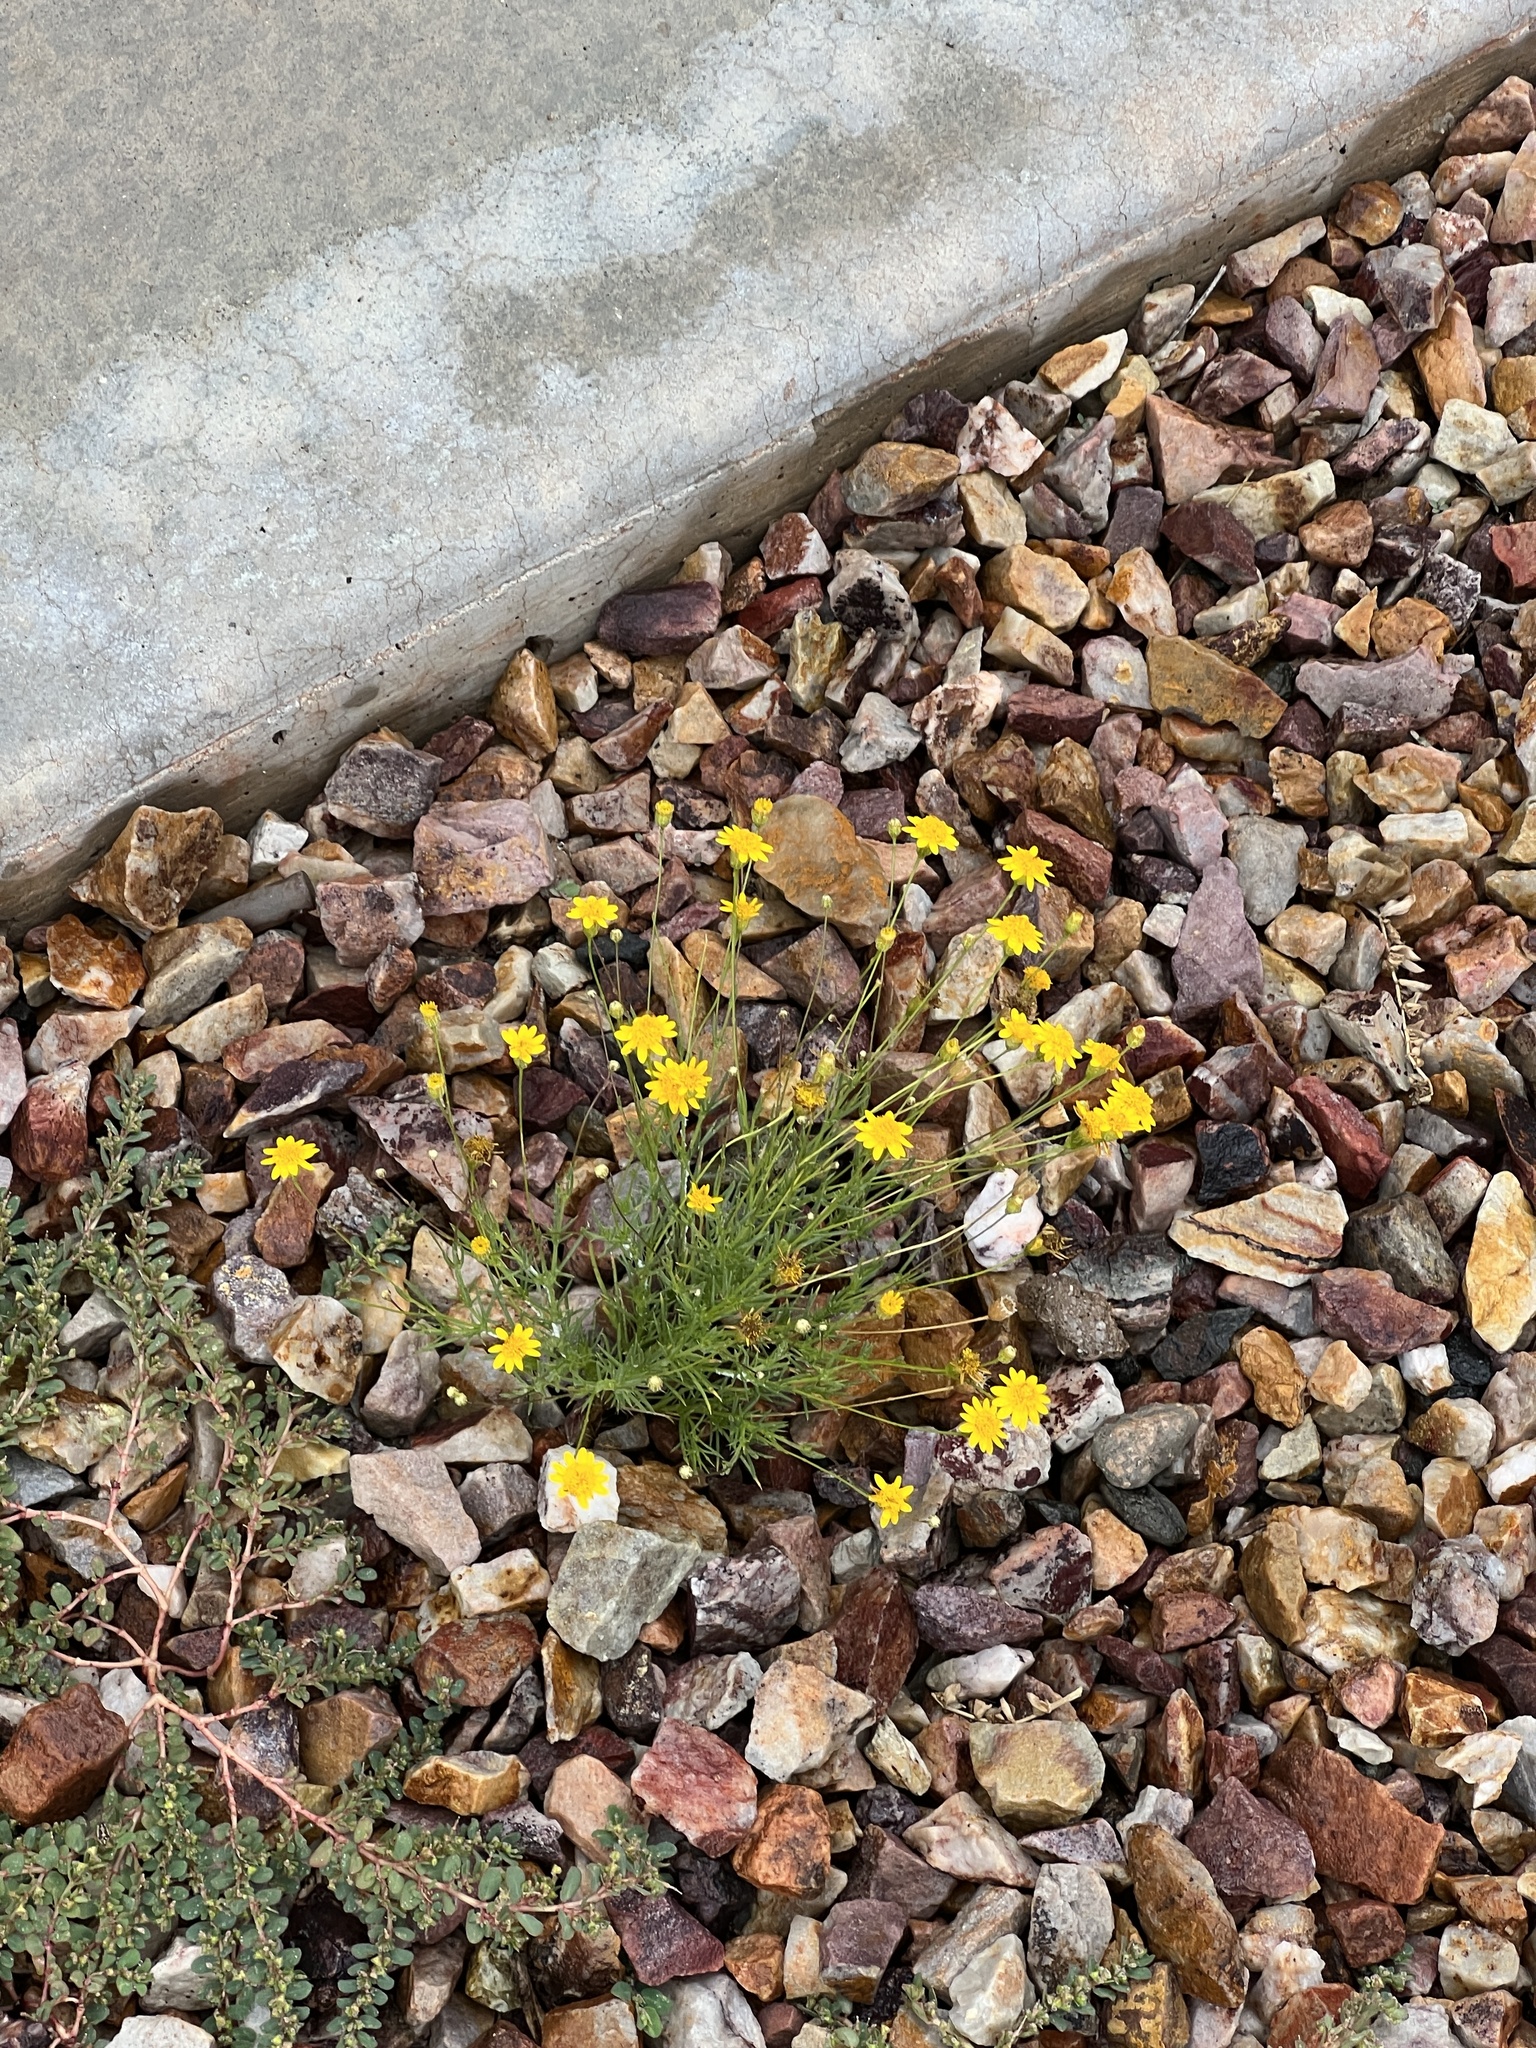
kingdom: Plantae
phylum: Tracheophyta
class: Magnoliopsida
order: Asterales
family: Asteraceae
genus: Thymophylla
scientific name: Thymophylla pentachaeta
